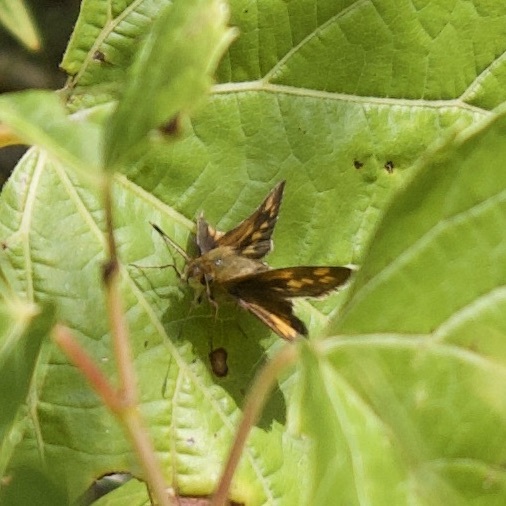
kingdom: Animalia
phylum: Arthropoda
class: Insecta
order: Lepidoptera
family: Hesperiidae
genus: Polites
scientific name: Polites coras
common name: Peck's skipper
